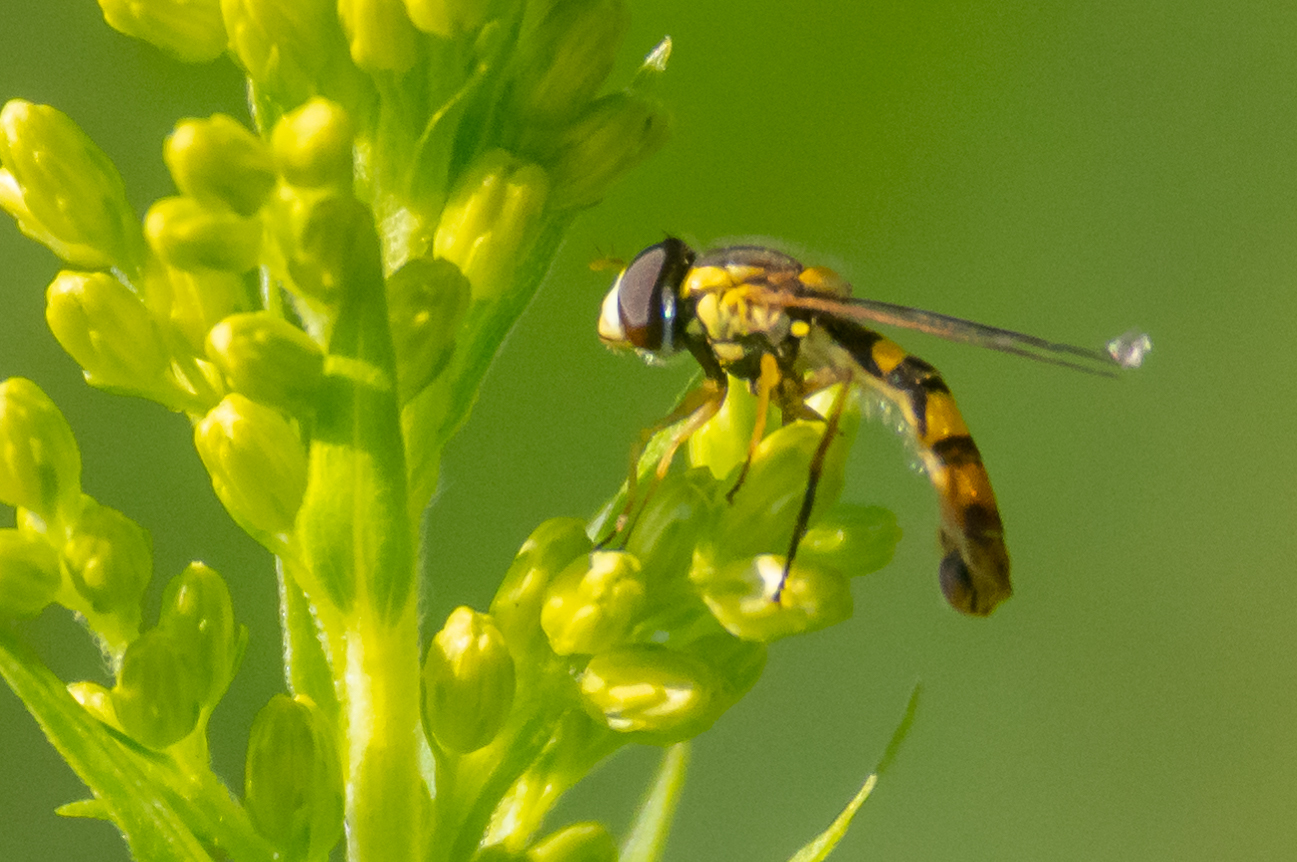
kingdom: Animalia
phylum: Arthropoda
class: Insecta
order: Diptera
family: Syrphidae
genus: Sphaerophoria
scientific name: Sphaerophoria philantha
